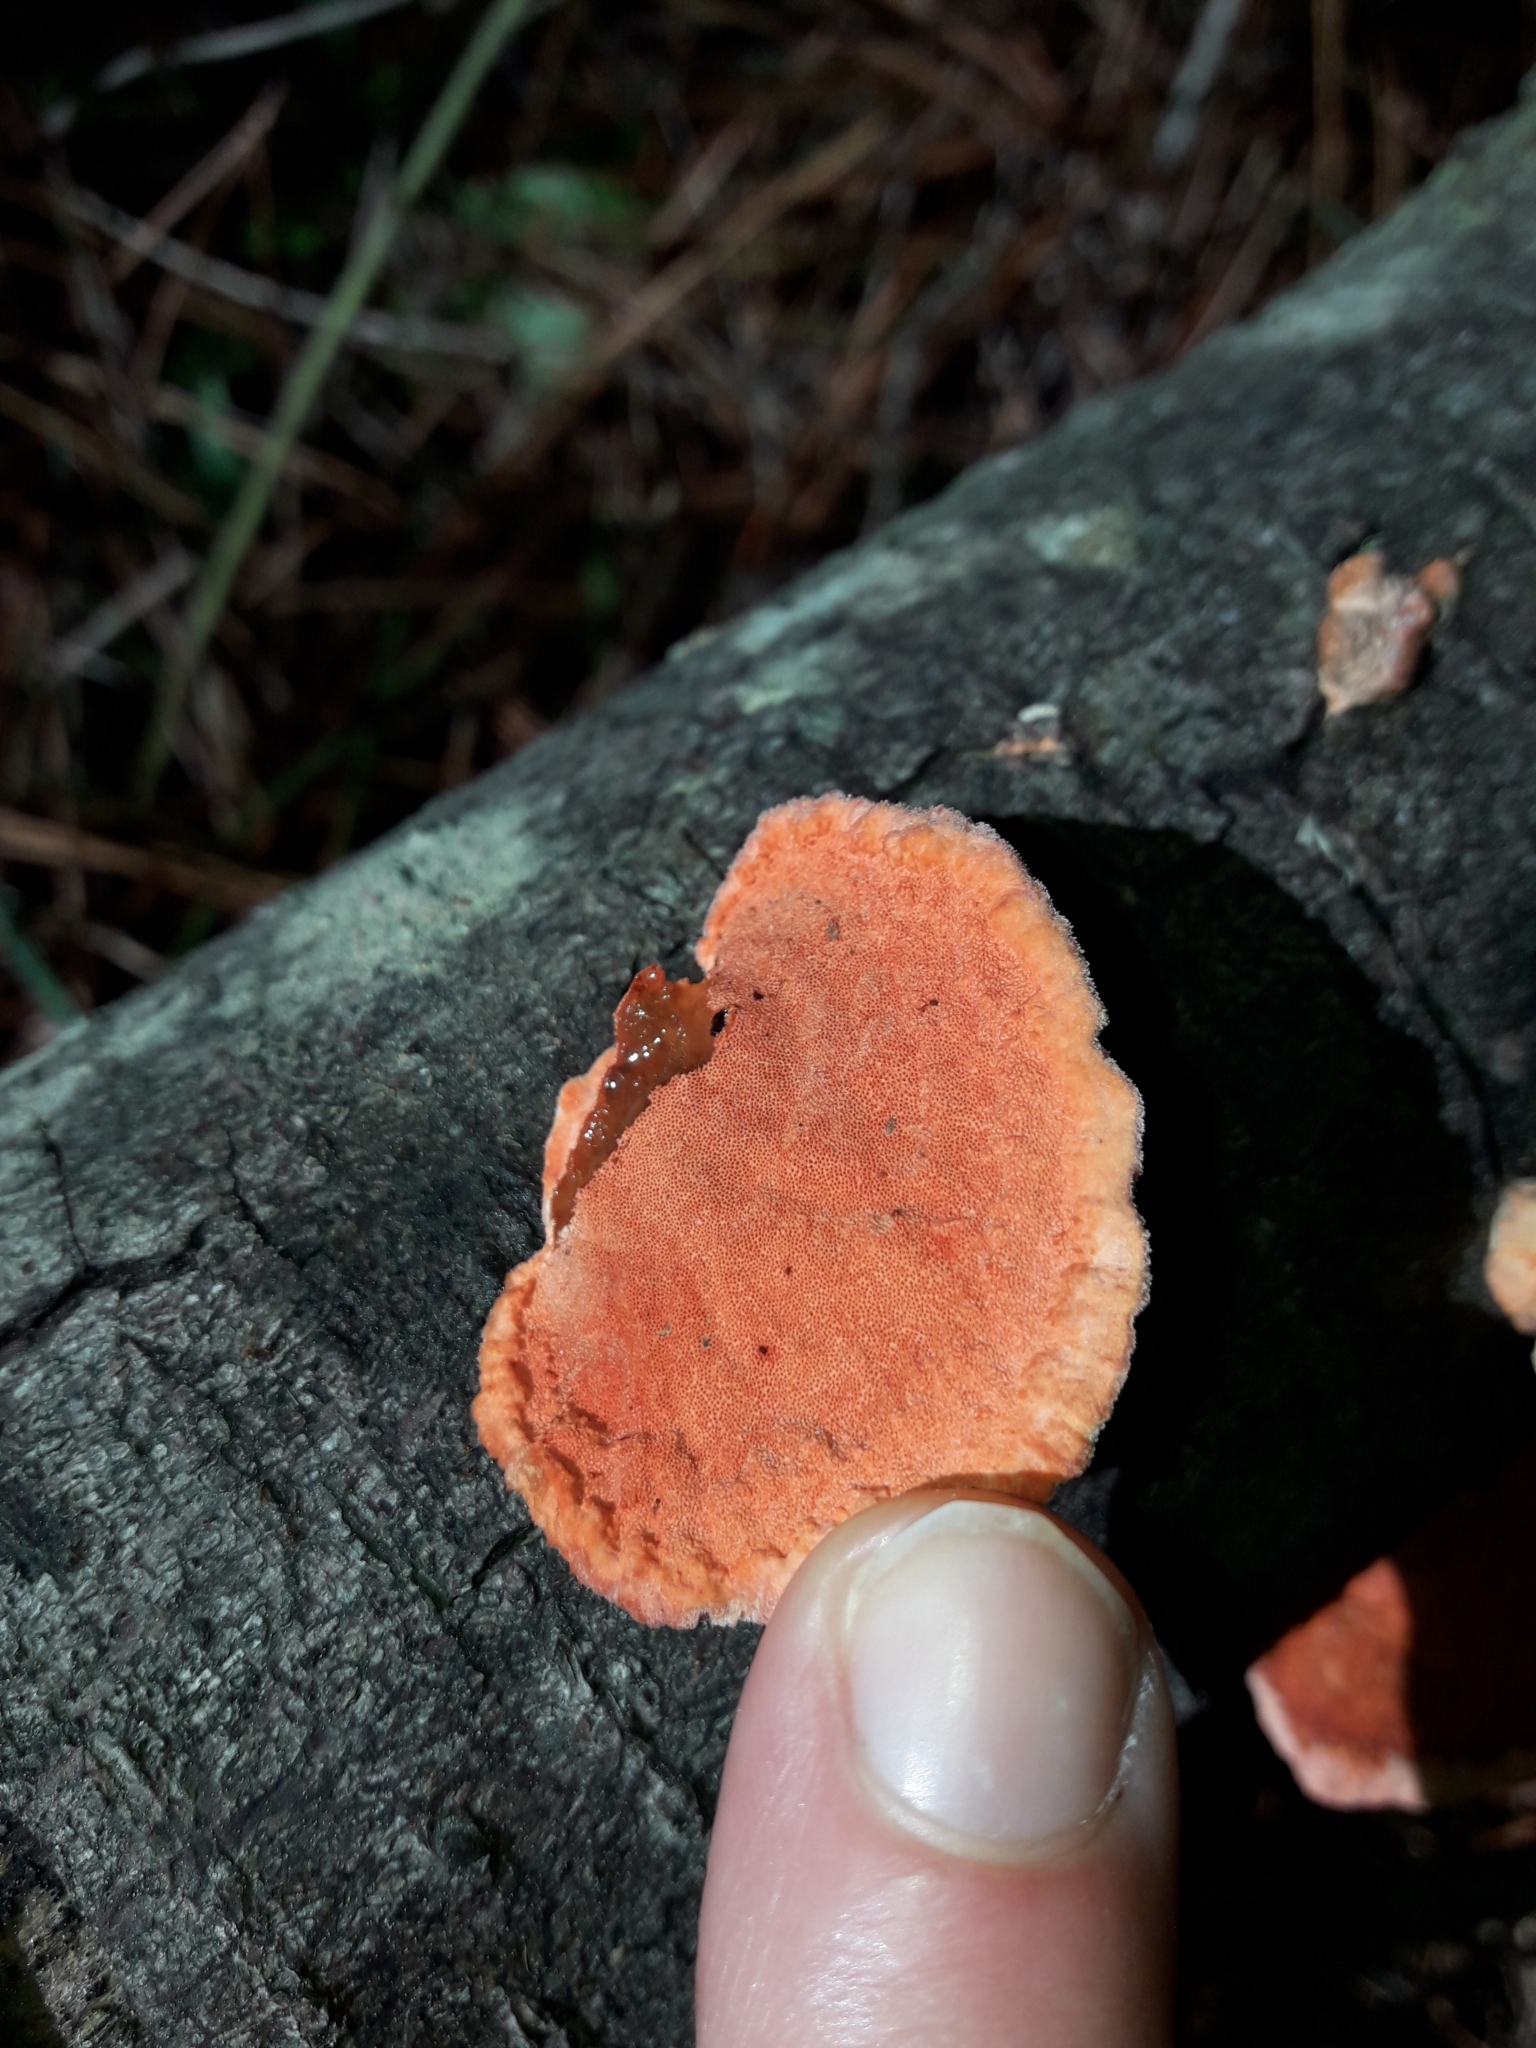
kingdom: Fungi
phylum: Basidiomycota
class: Agaricomycetes
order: Polyporales
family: Polyporaceae
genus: Trametes
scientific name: Trametes coccinea
